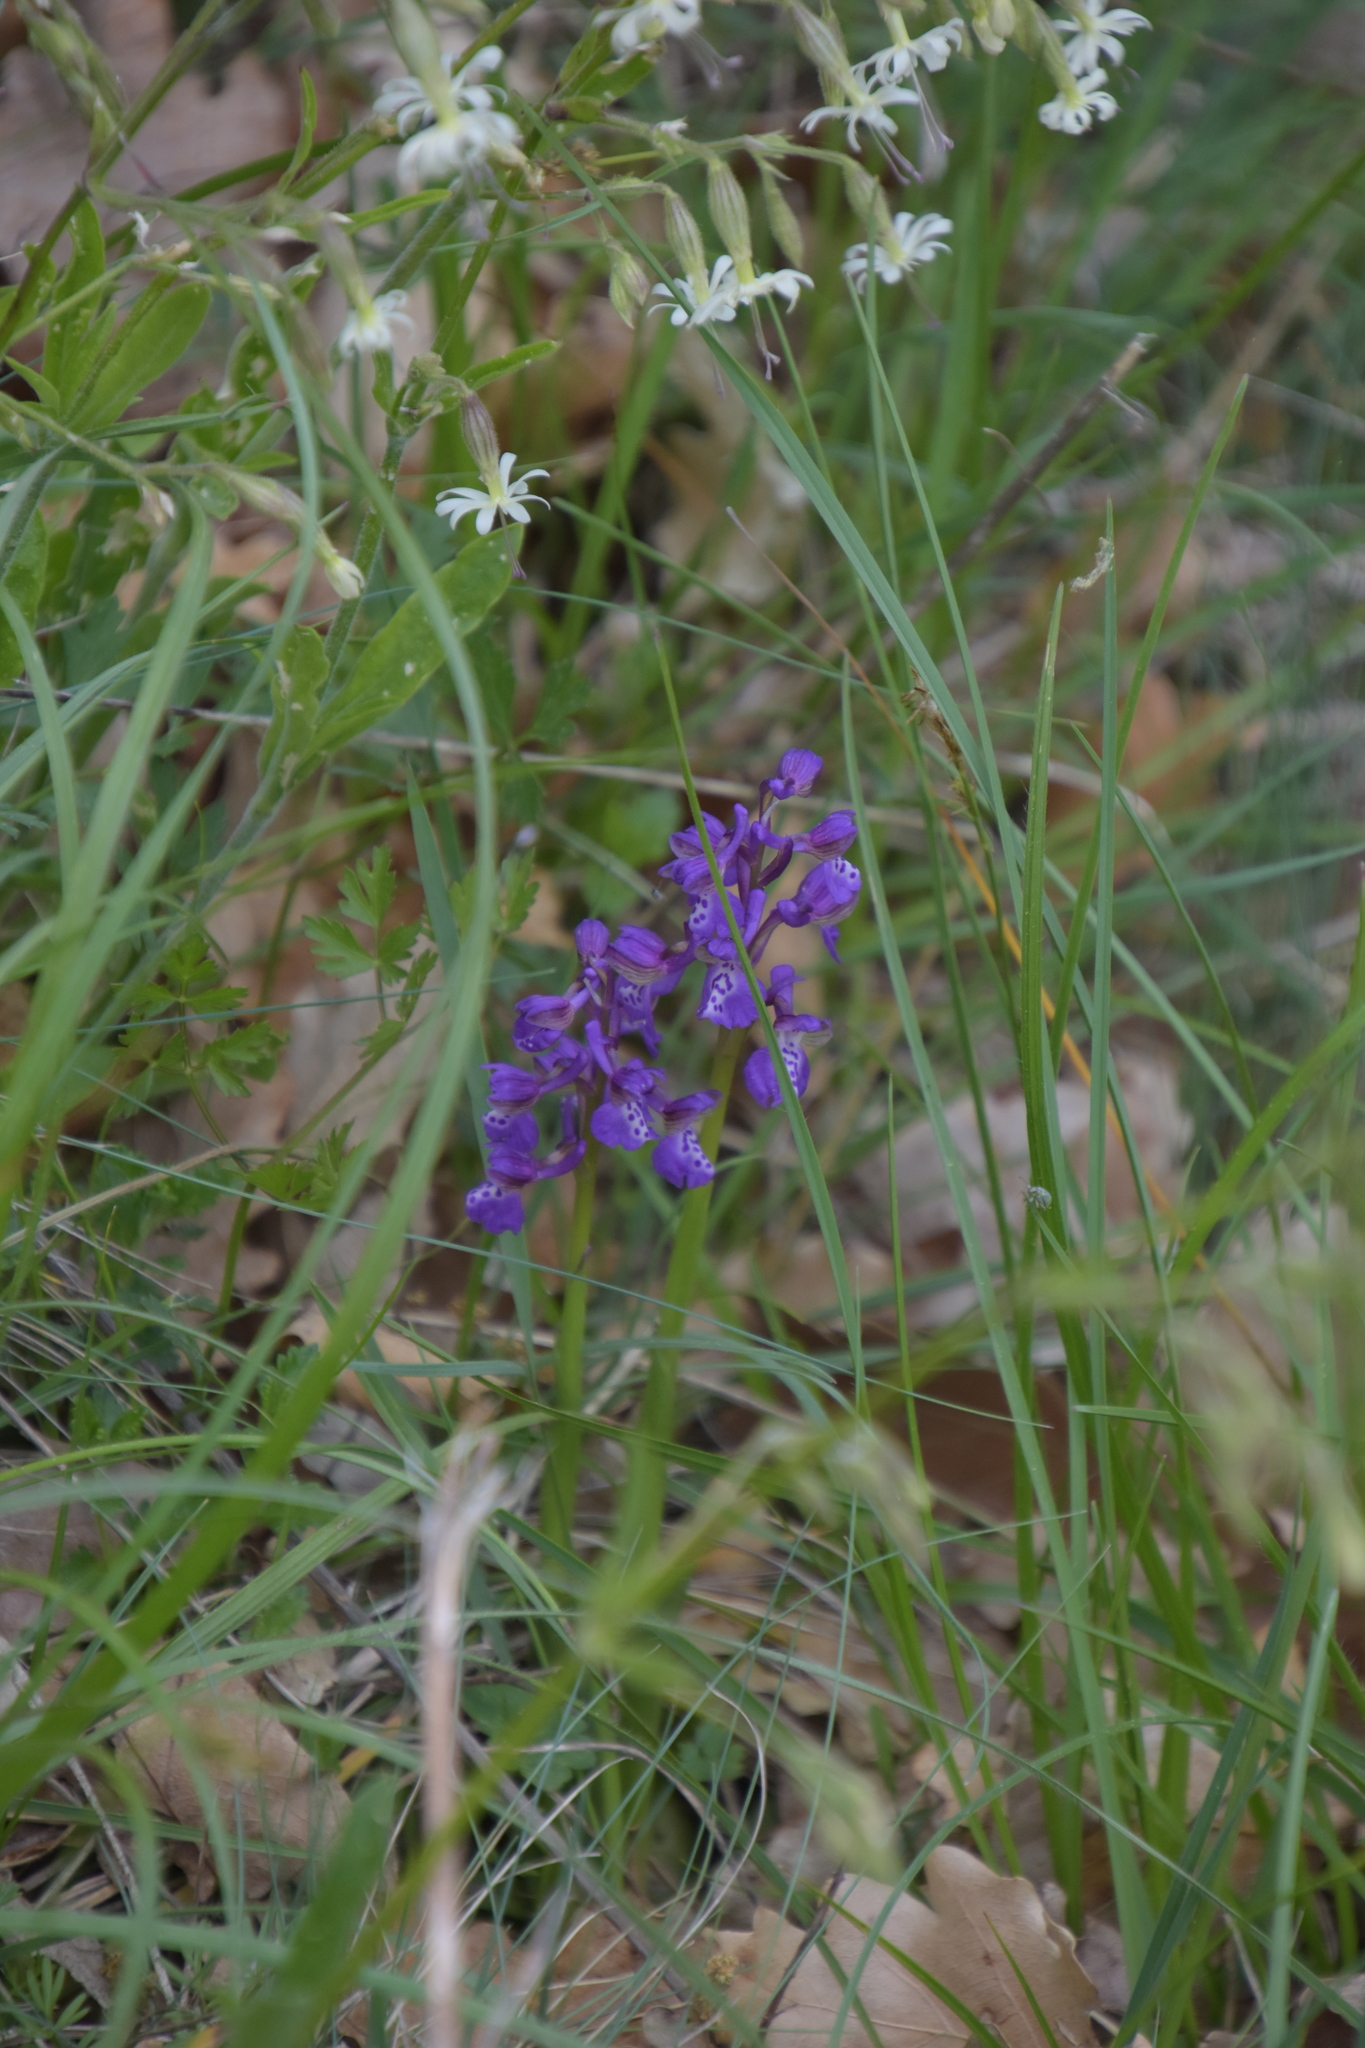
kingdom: Plantae
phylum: Tracheophyta
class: Liliopsida
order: Asparagales
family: Orchidaceae
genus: Anacamptis
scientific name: Anacamptis morio
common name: Green-winged orchid
